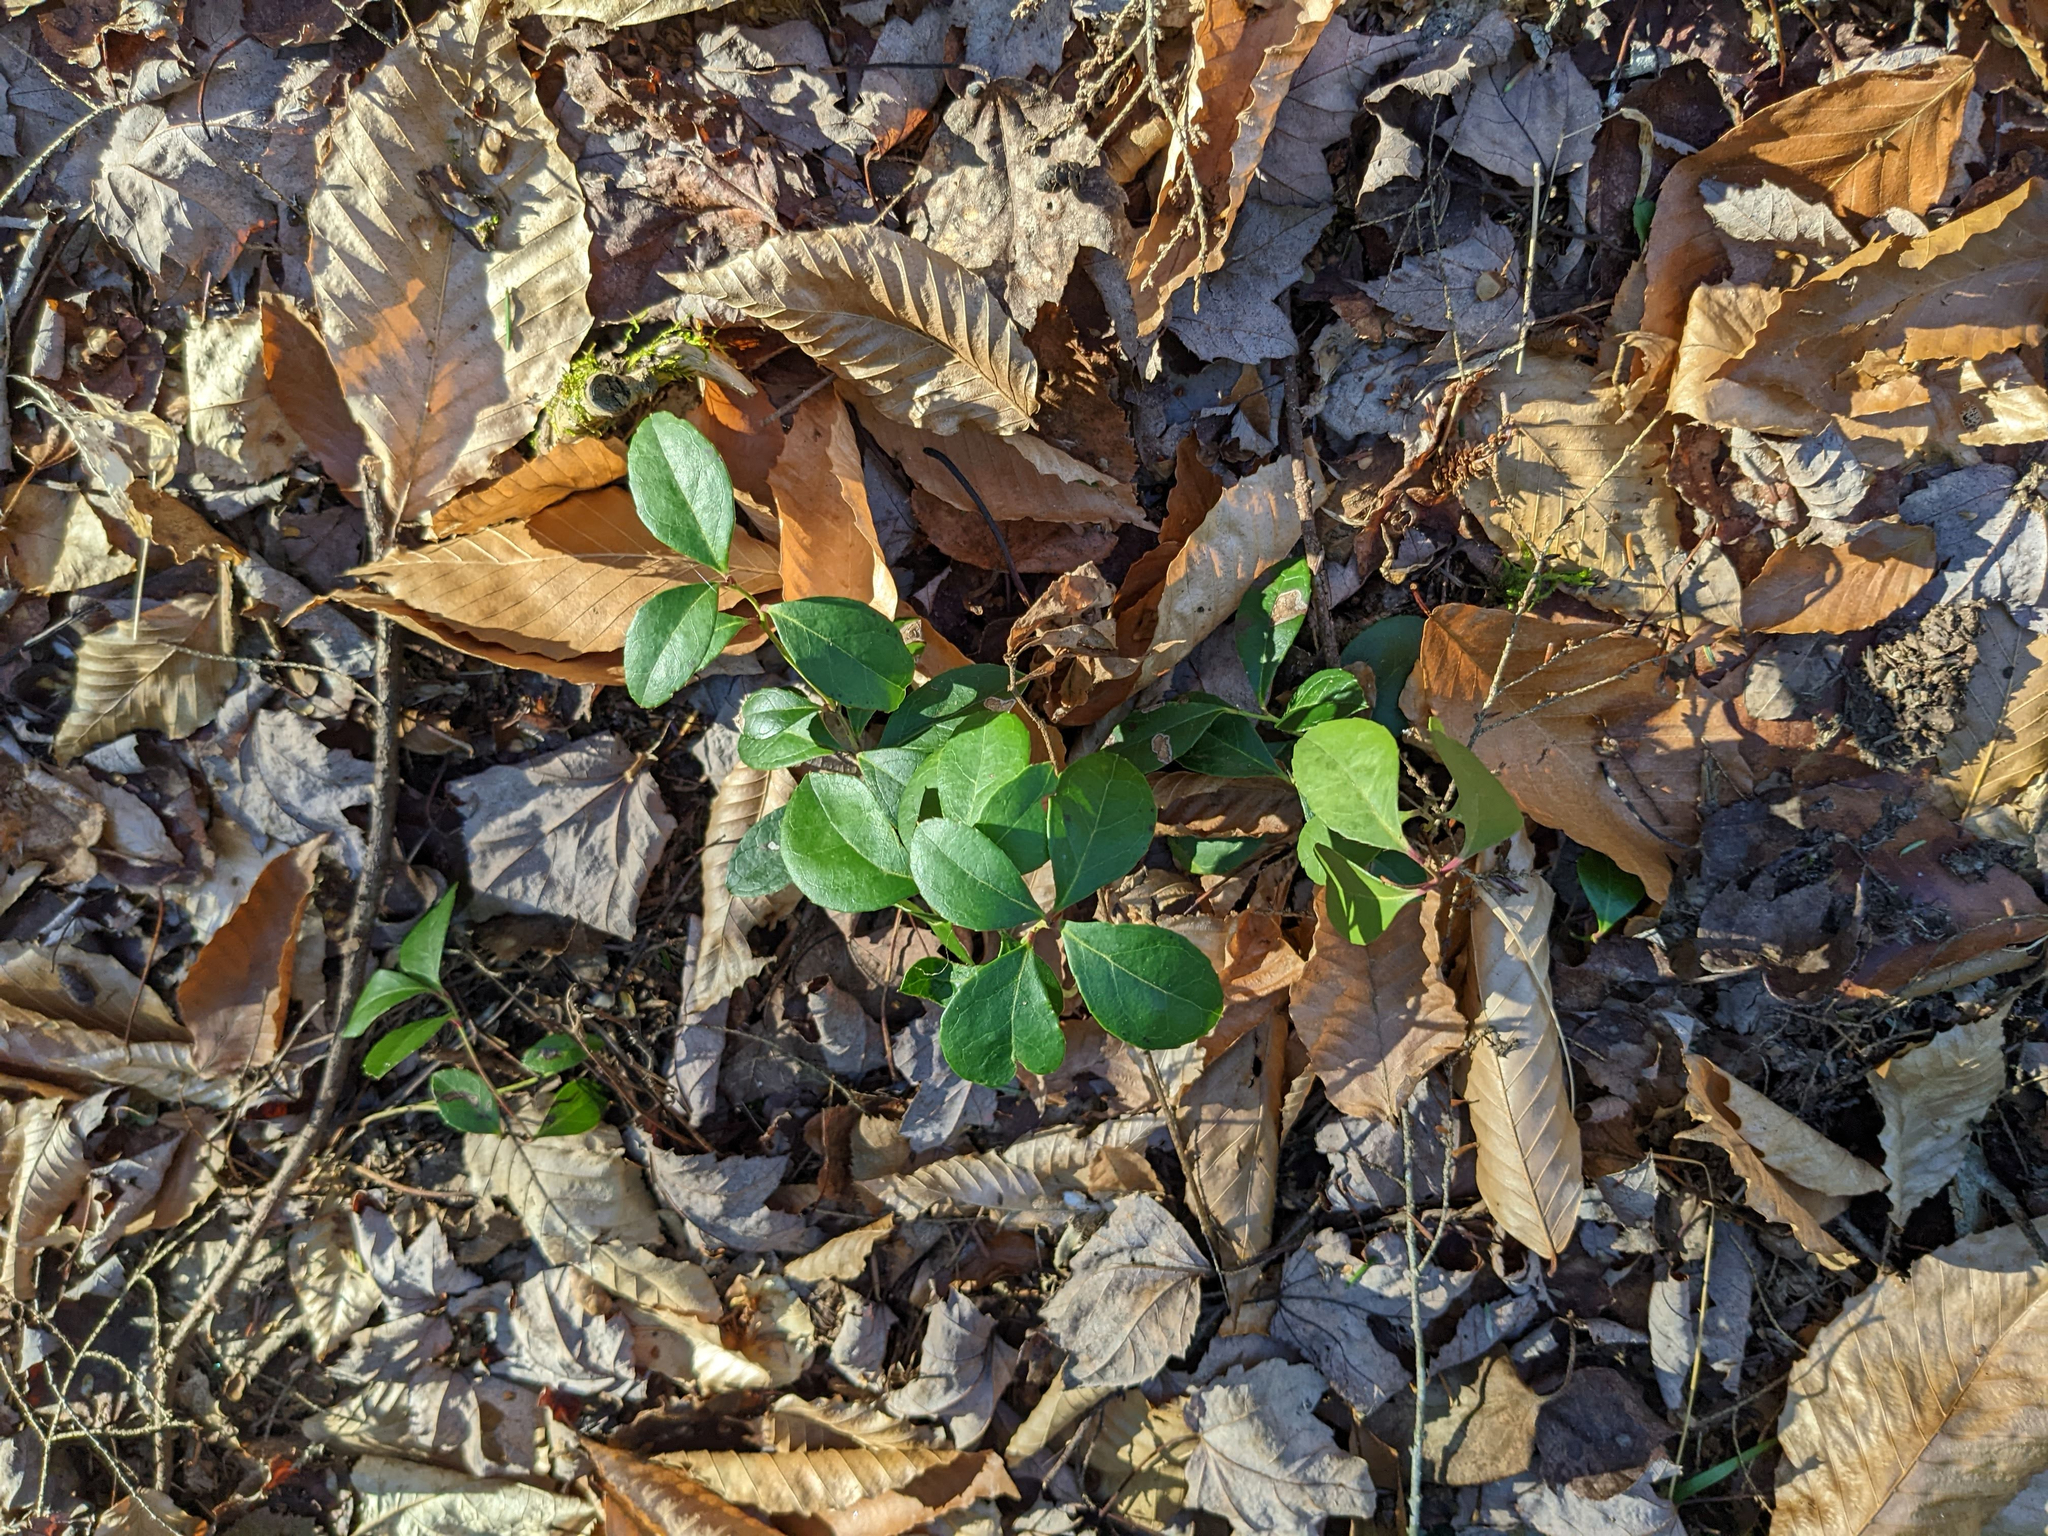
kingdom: Plantae
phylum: Tracheophyta
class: Magnoliopsida
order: Ericales
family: Ericaceae
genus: Gaultheria
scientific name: Gaultheria procumbens
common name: Checkerberry
